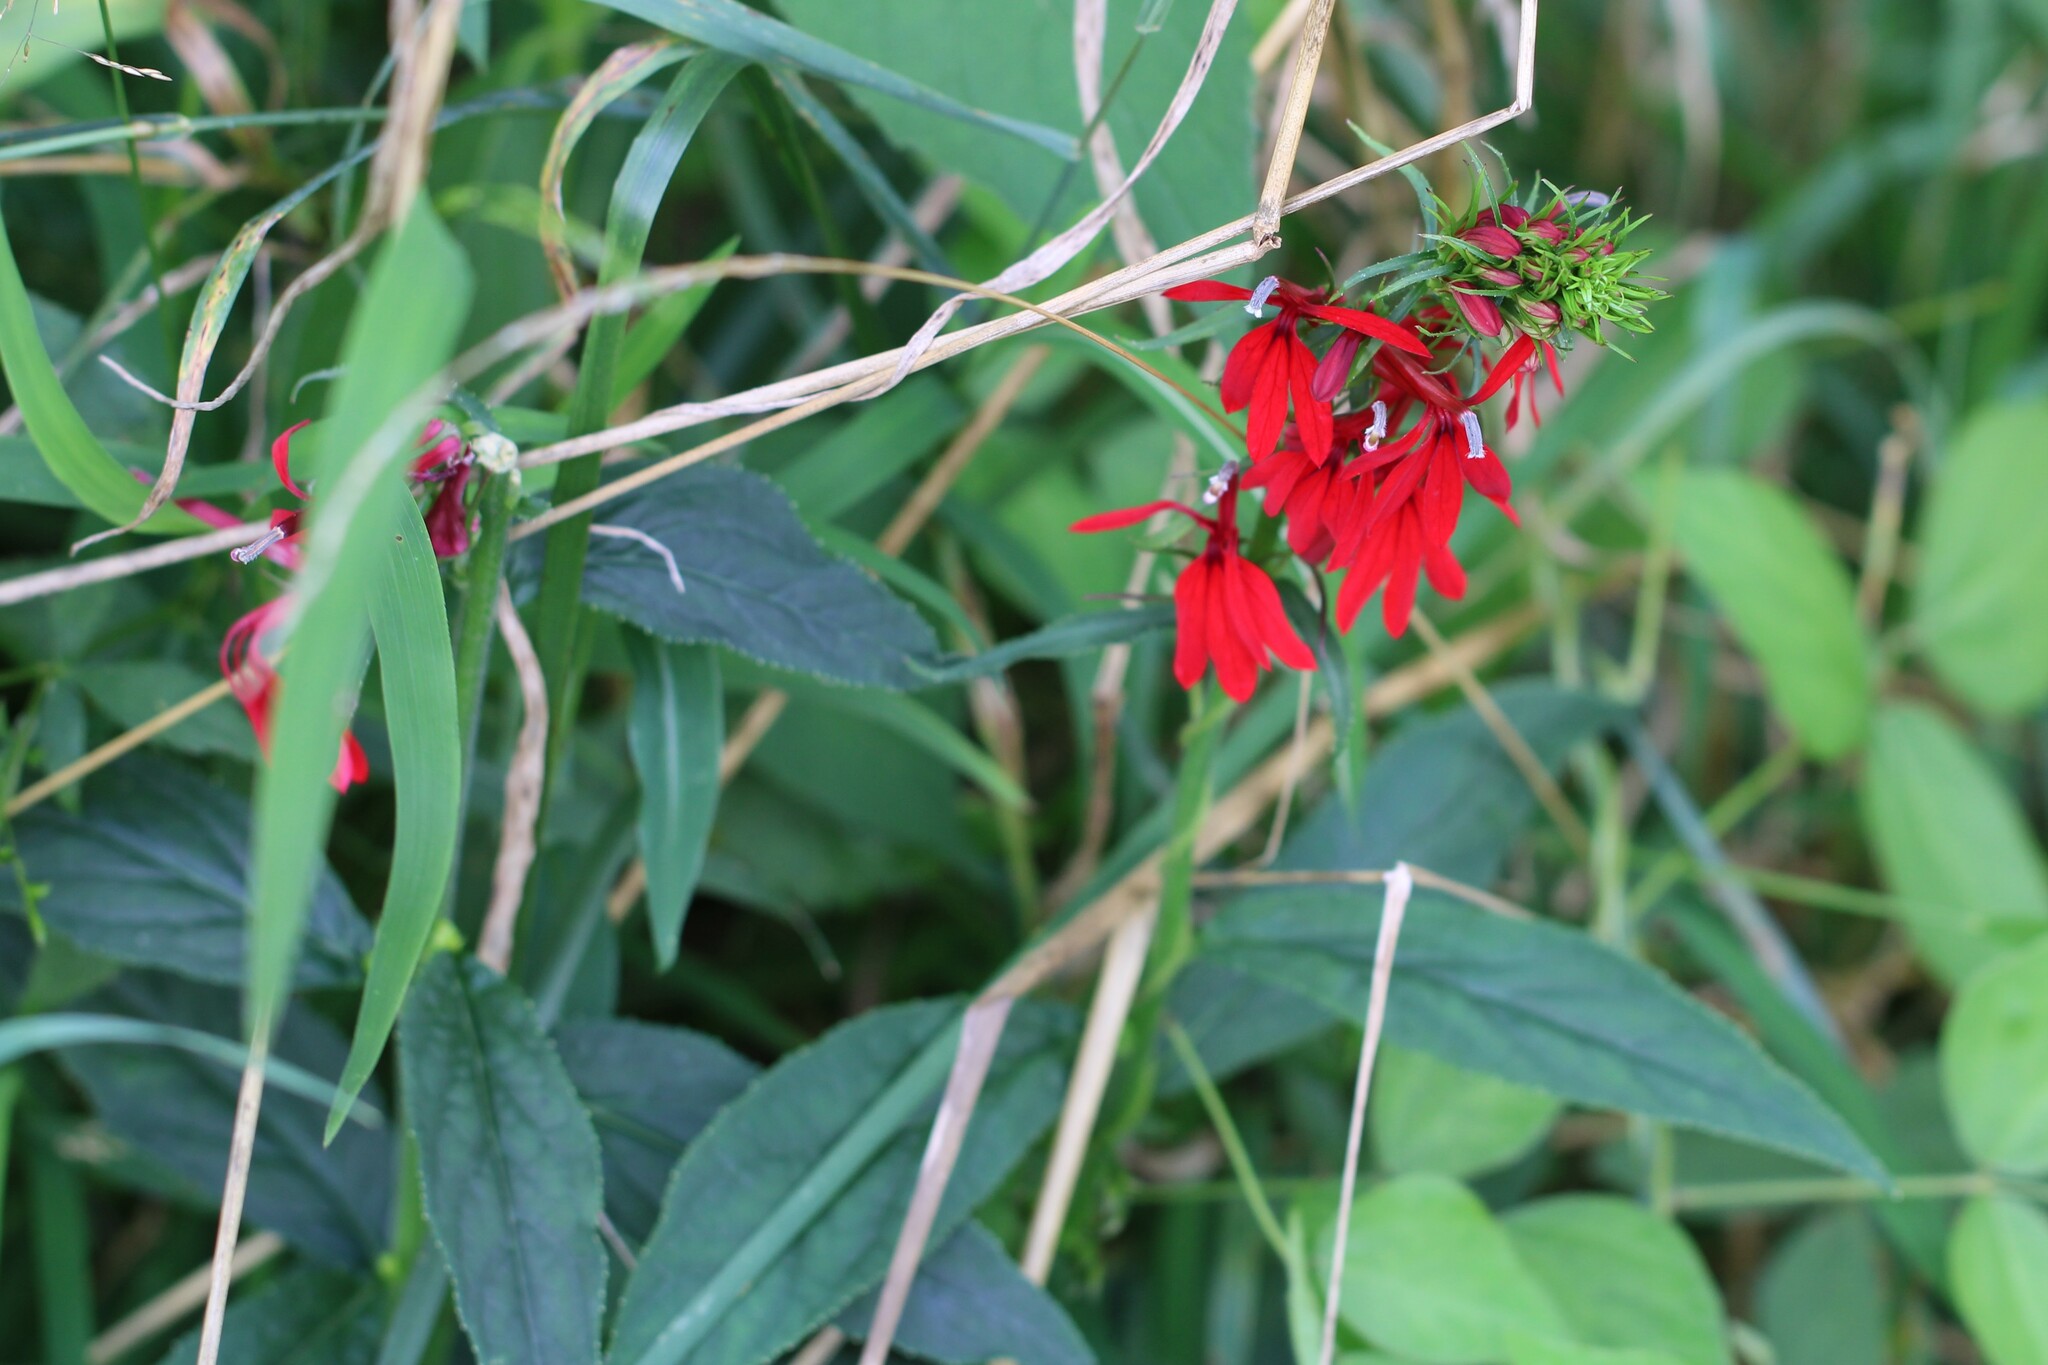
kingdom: Plantae
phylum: Tracheophyta
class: Magnoliopsida
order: Asterales
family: Campanulaceae
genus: Lobelia
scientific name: Lobelia cardinalis
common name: Cardinal flower
